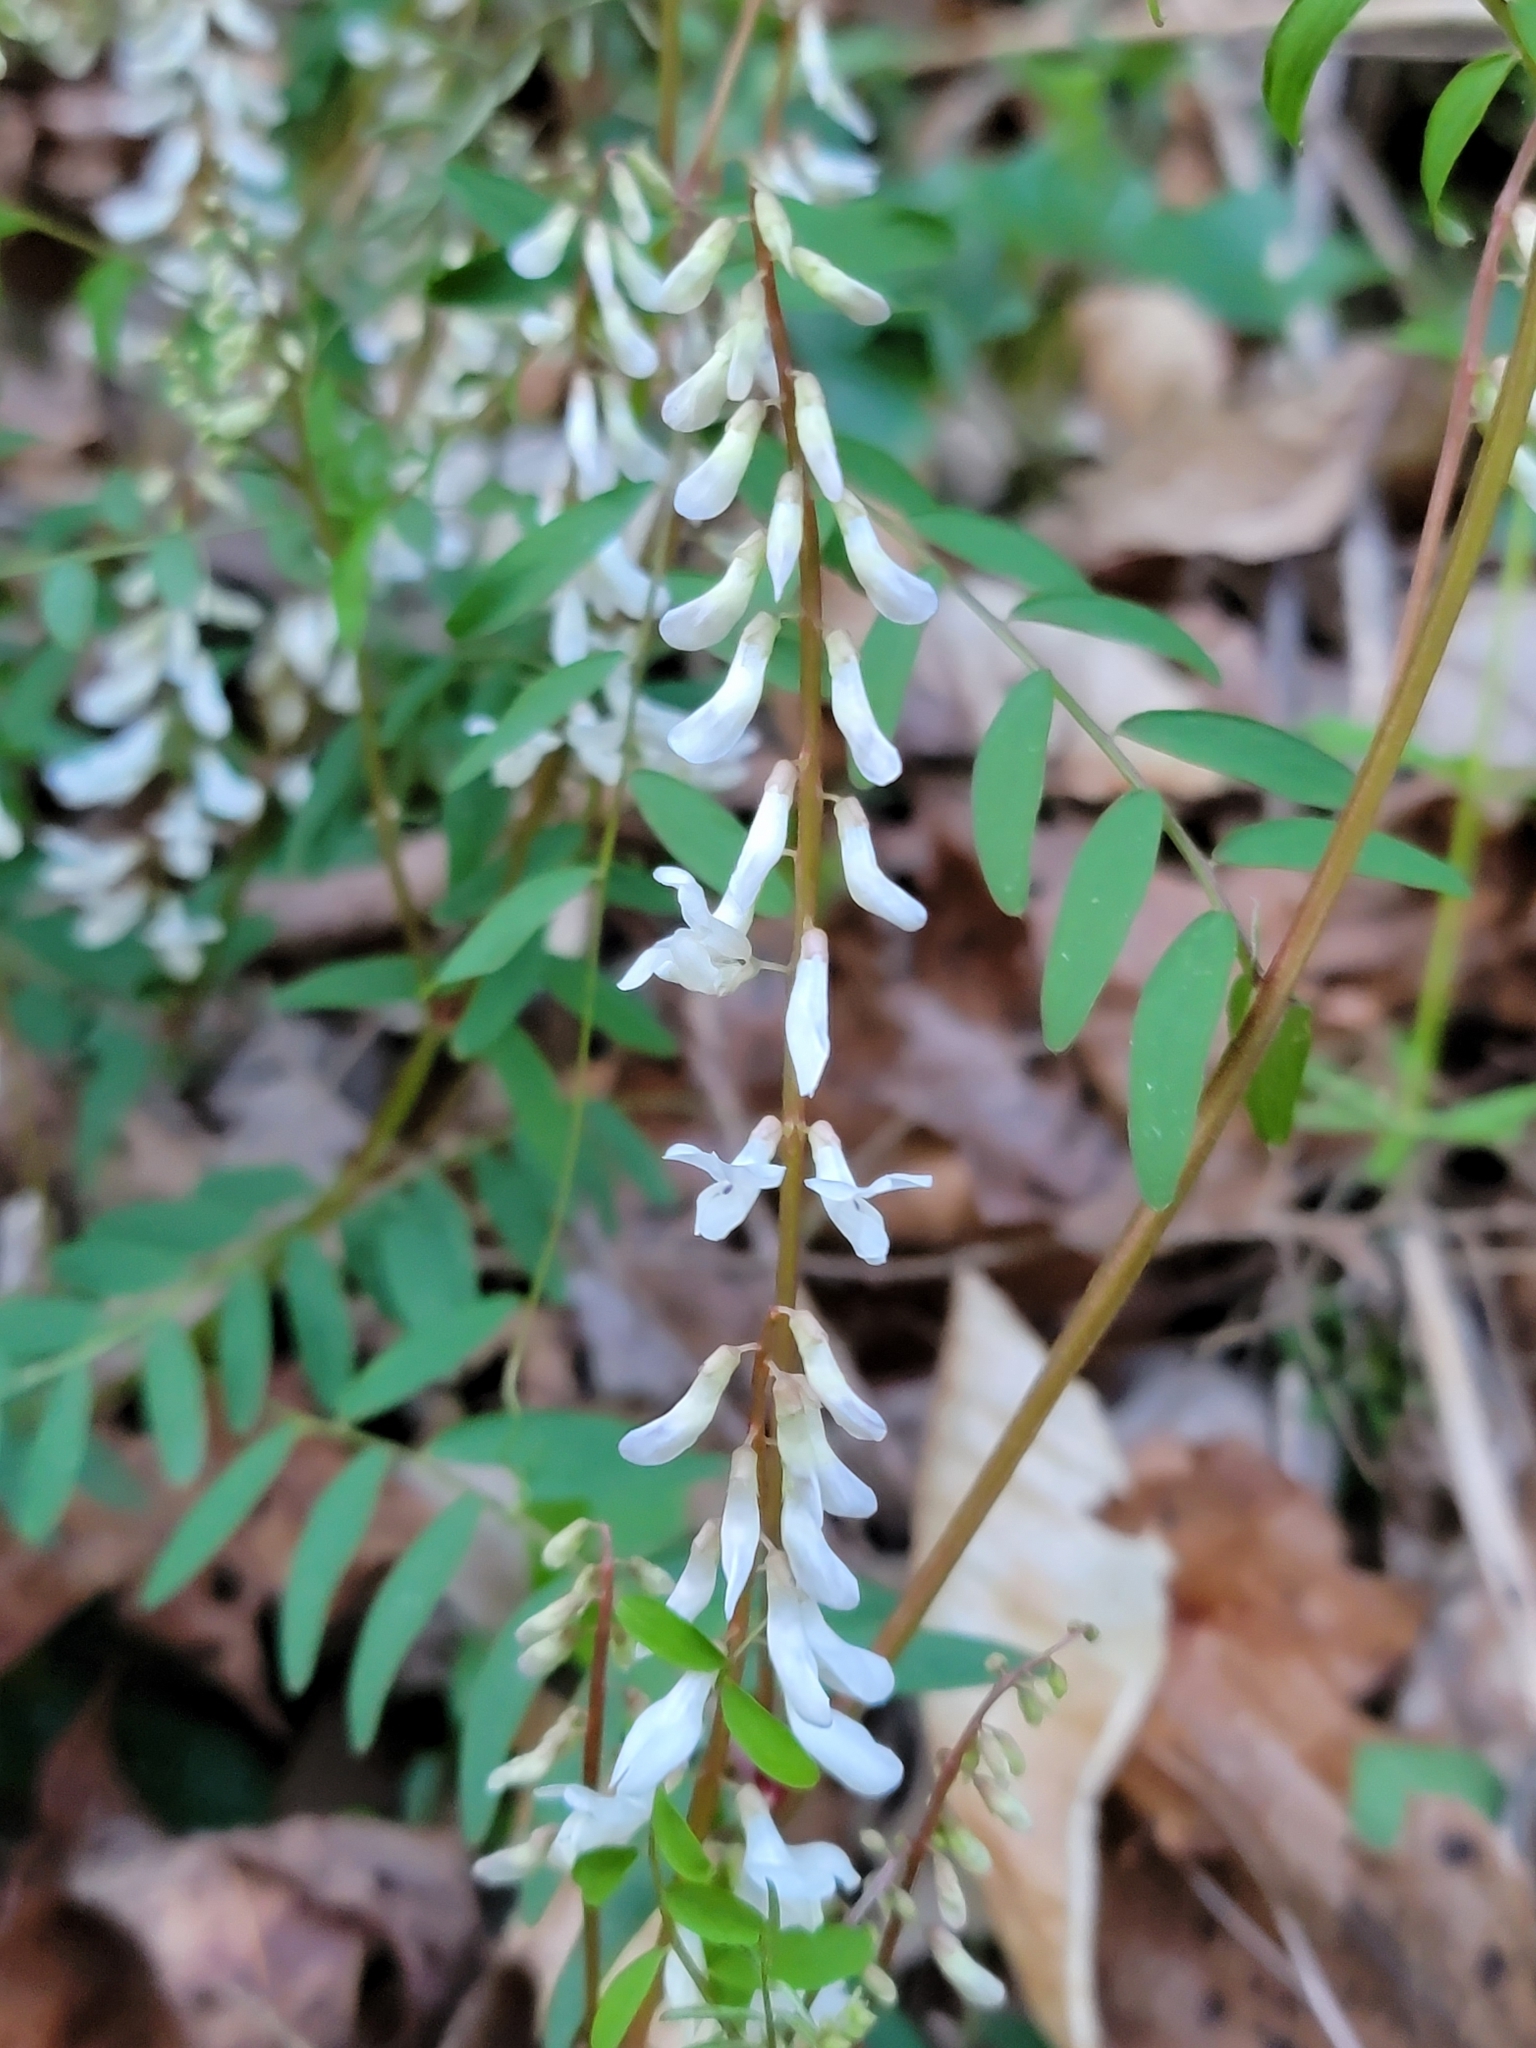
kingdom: Plantae
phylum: Tracheophyta
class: Magnoliopsida
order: Fabales
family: Fabaceae
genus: Vicia
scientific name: Vicia caroliniana
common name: Carolina vetch
